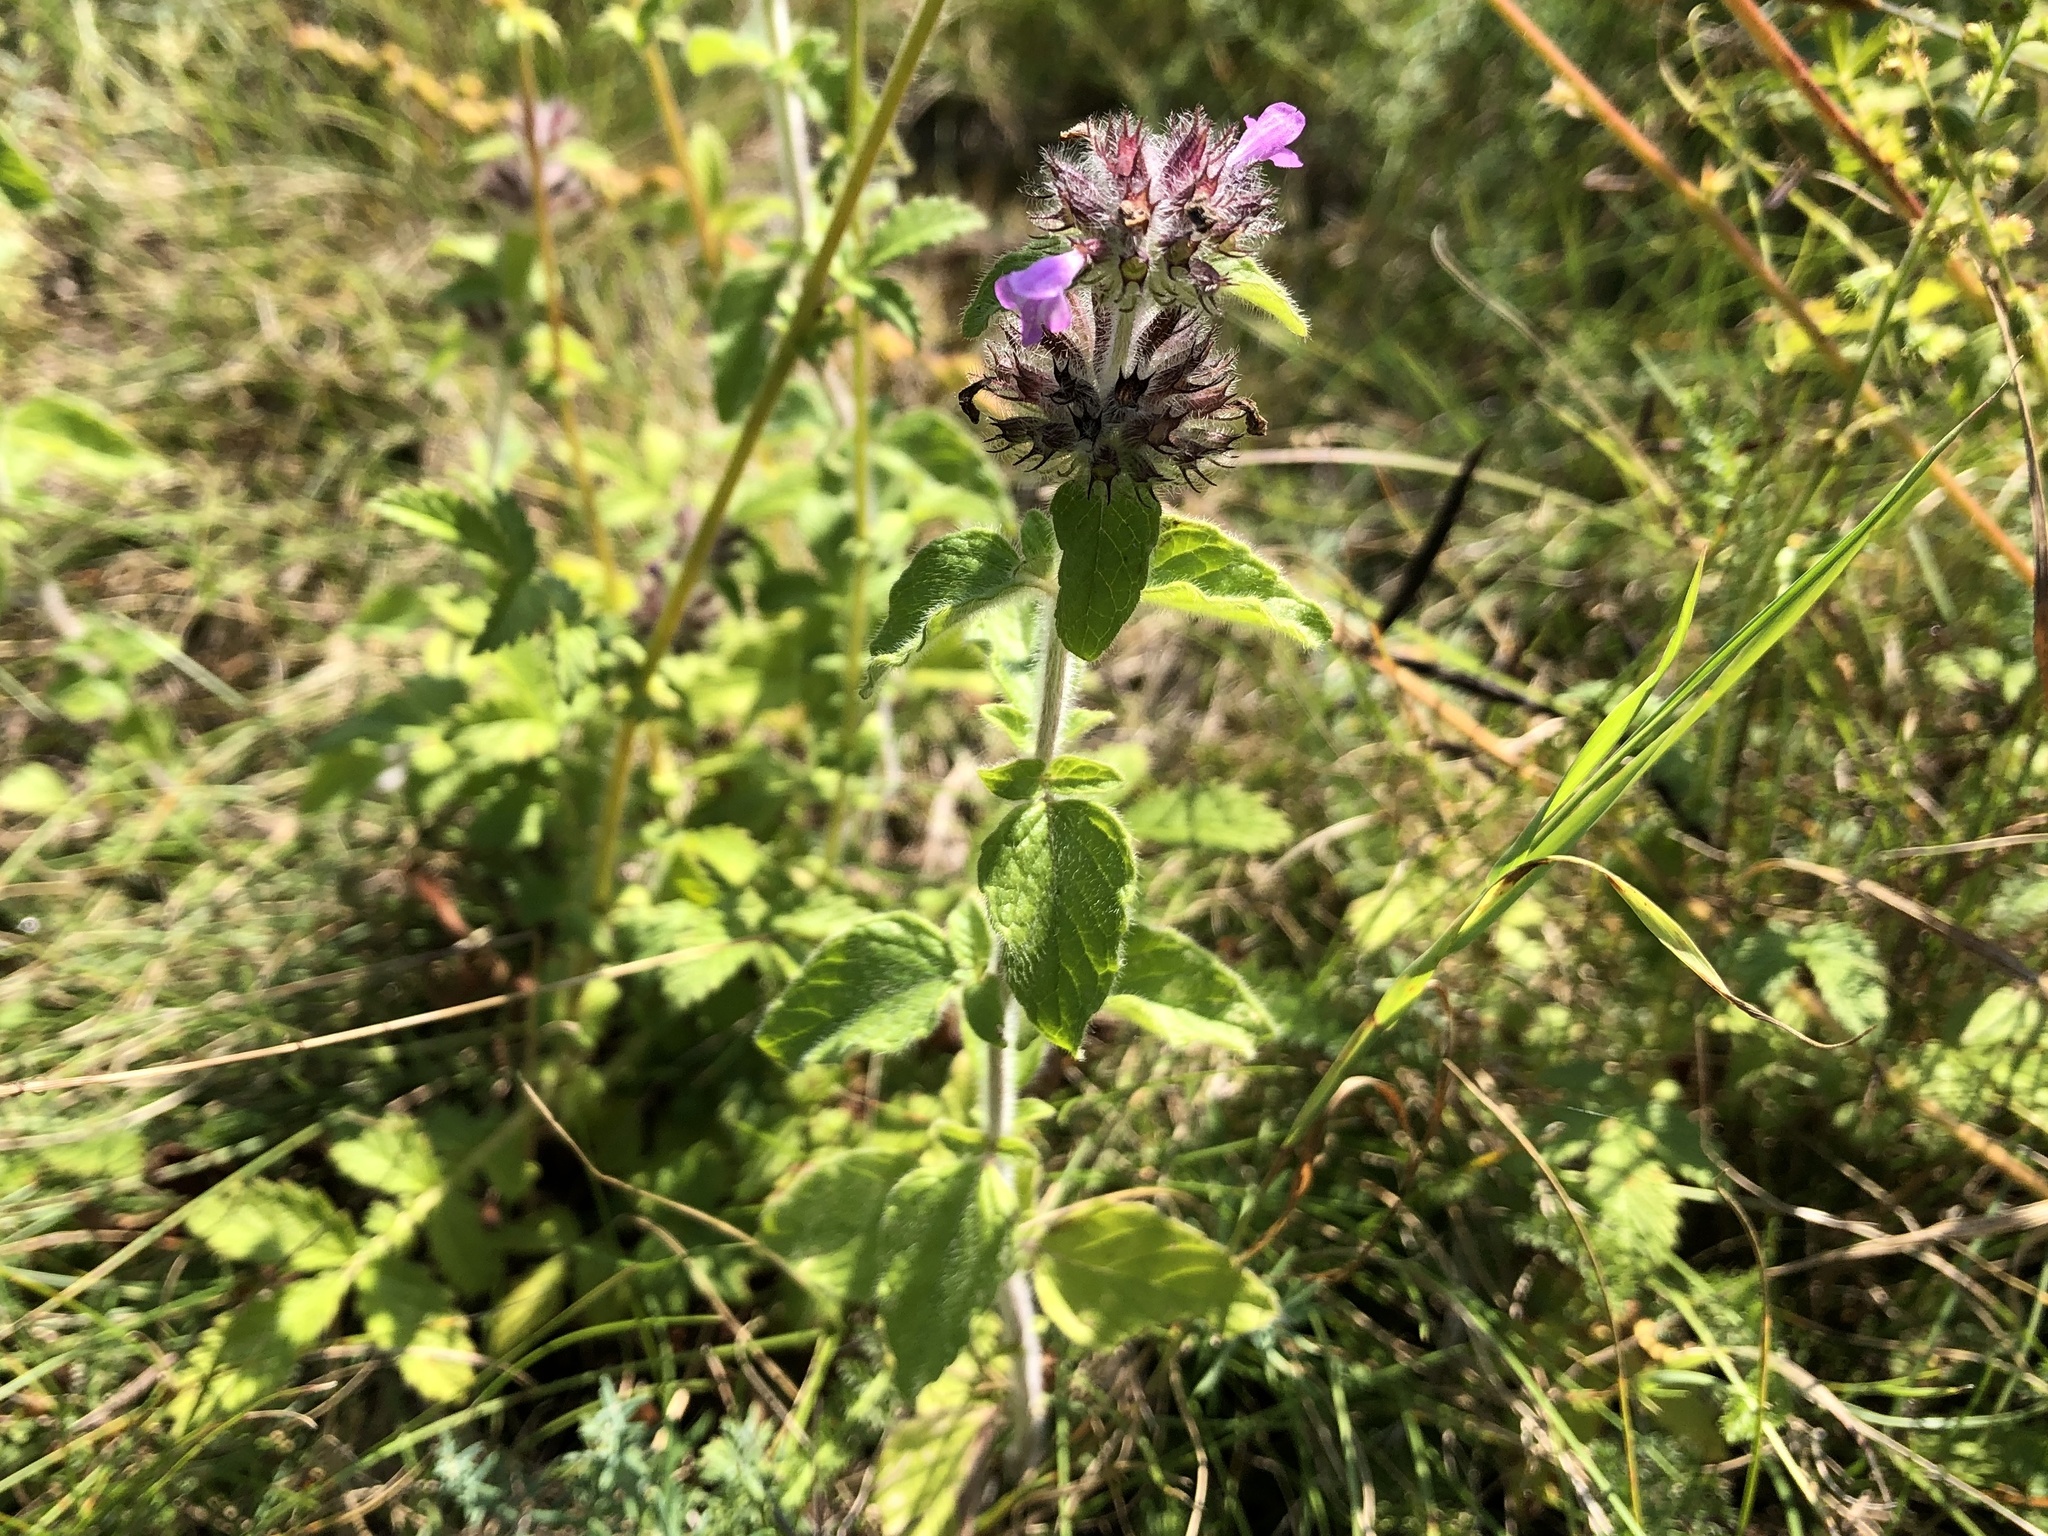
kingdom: Plantae
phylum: Tracheophyta
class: Magnoliopsida
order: Lamiales
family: Lamiaceae
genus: Clinopodium
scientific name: Clinopodium vulgare
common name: Wild basil
